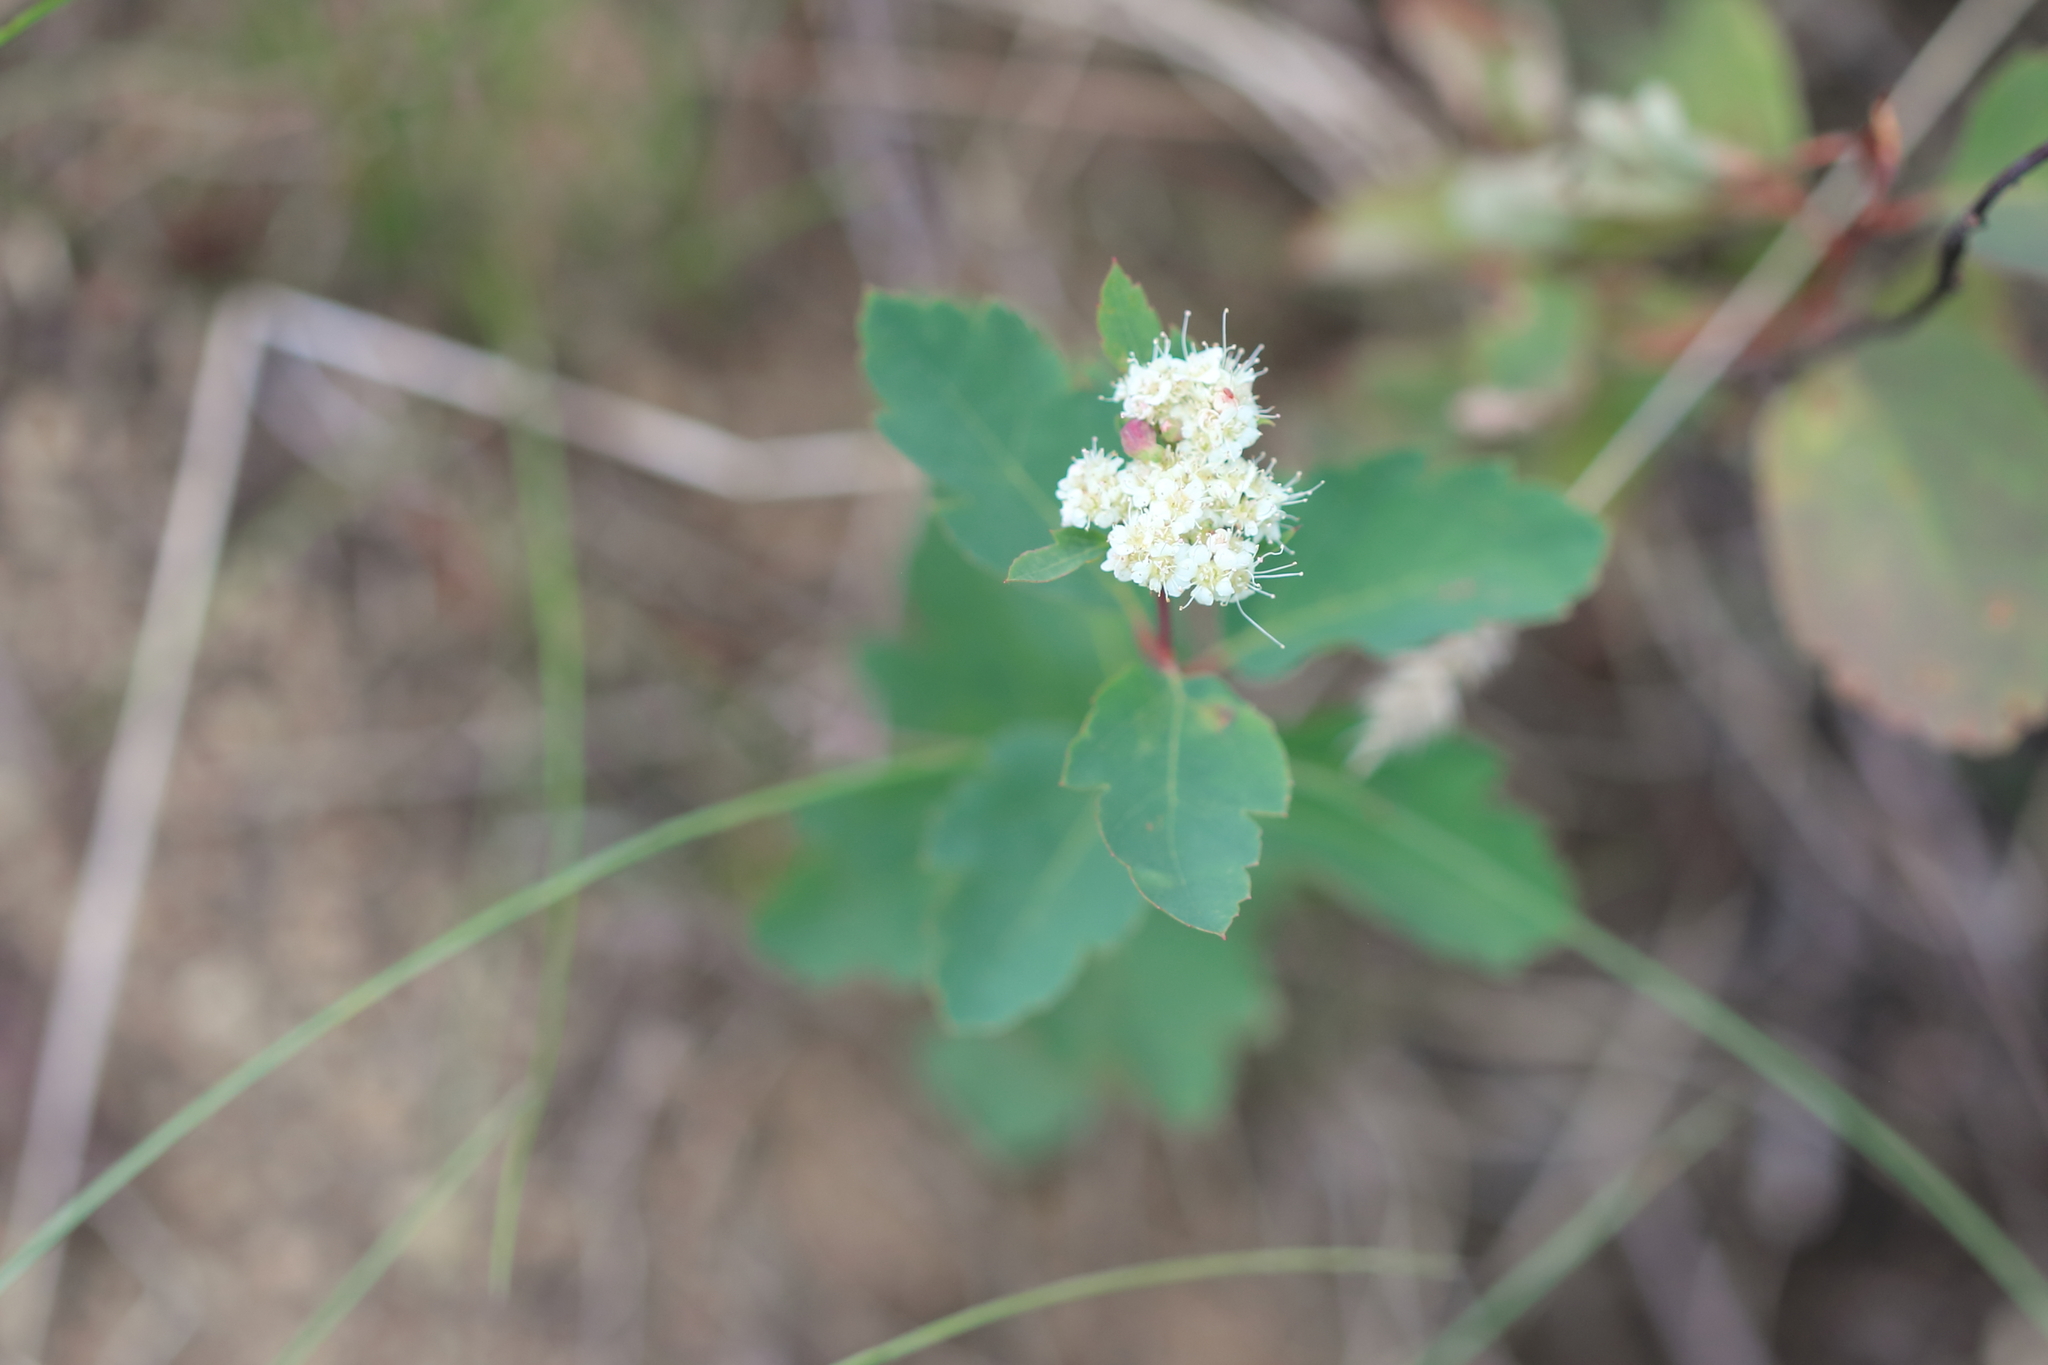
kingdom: Plantae
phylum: Tracheophyta
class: Magnoliopsida
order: Rosales
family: Rosaceae
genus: Spiraea
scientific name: Spiraea lucida
